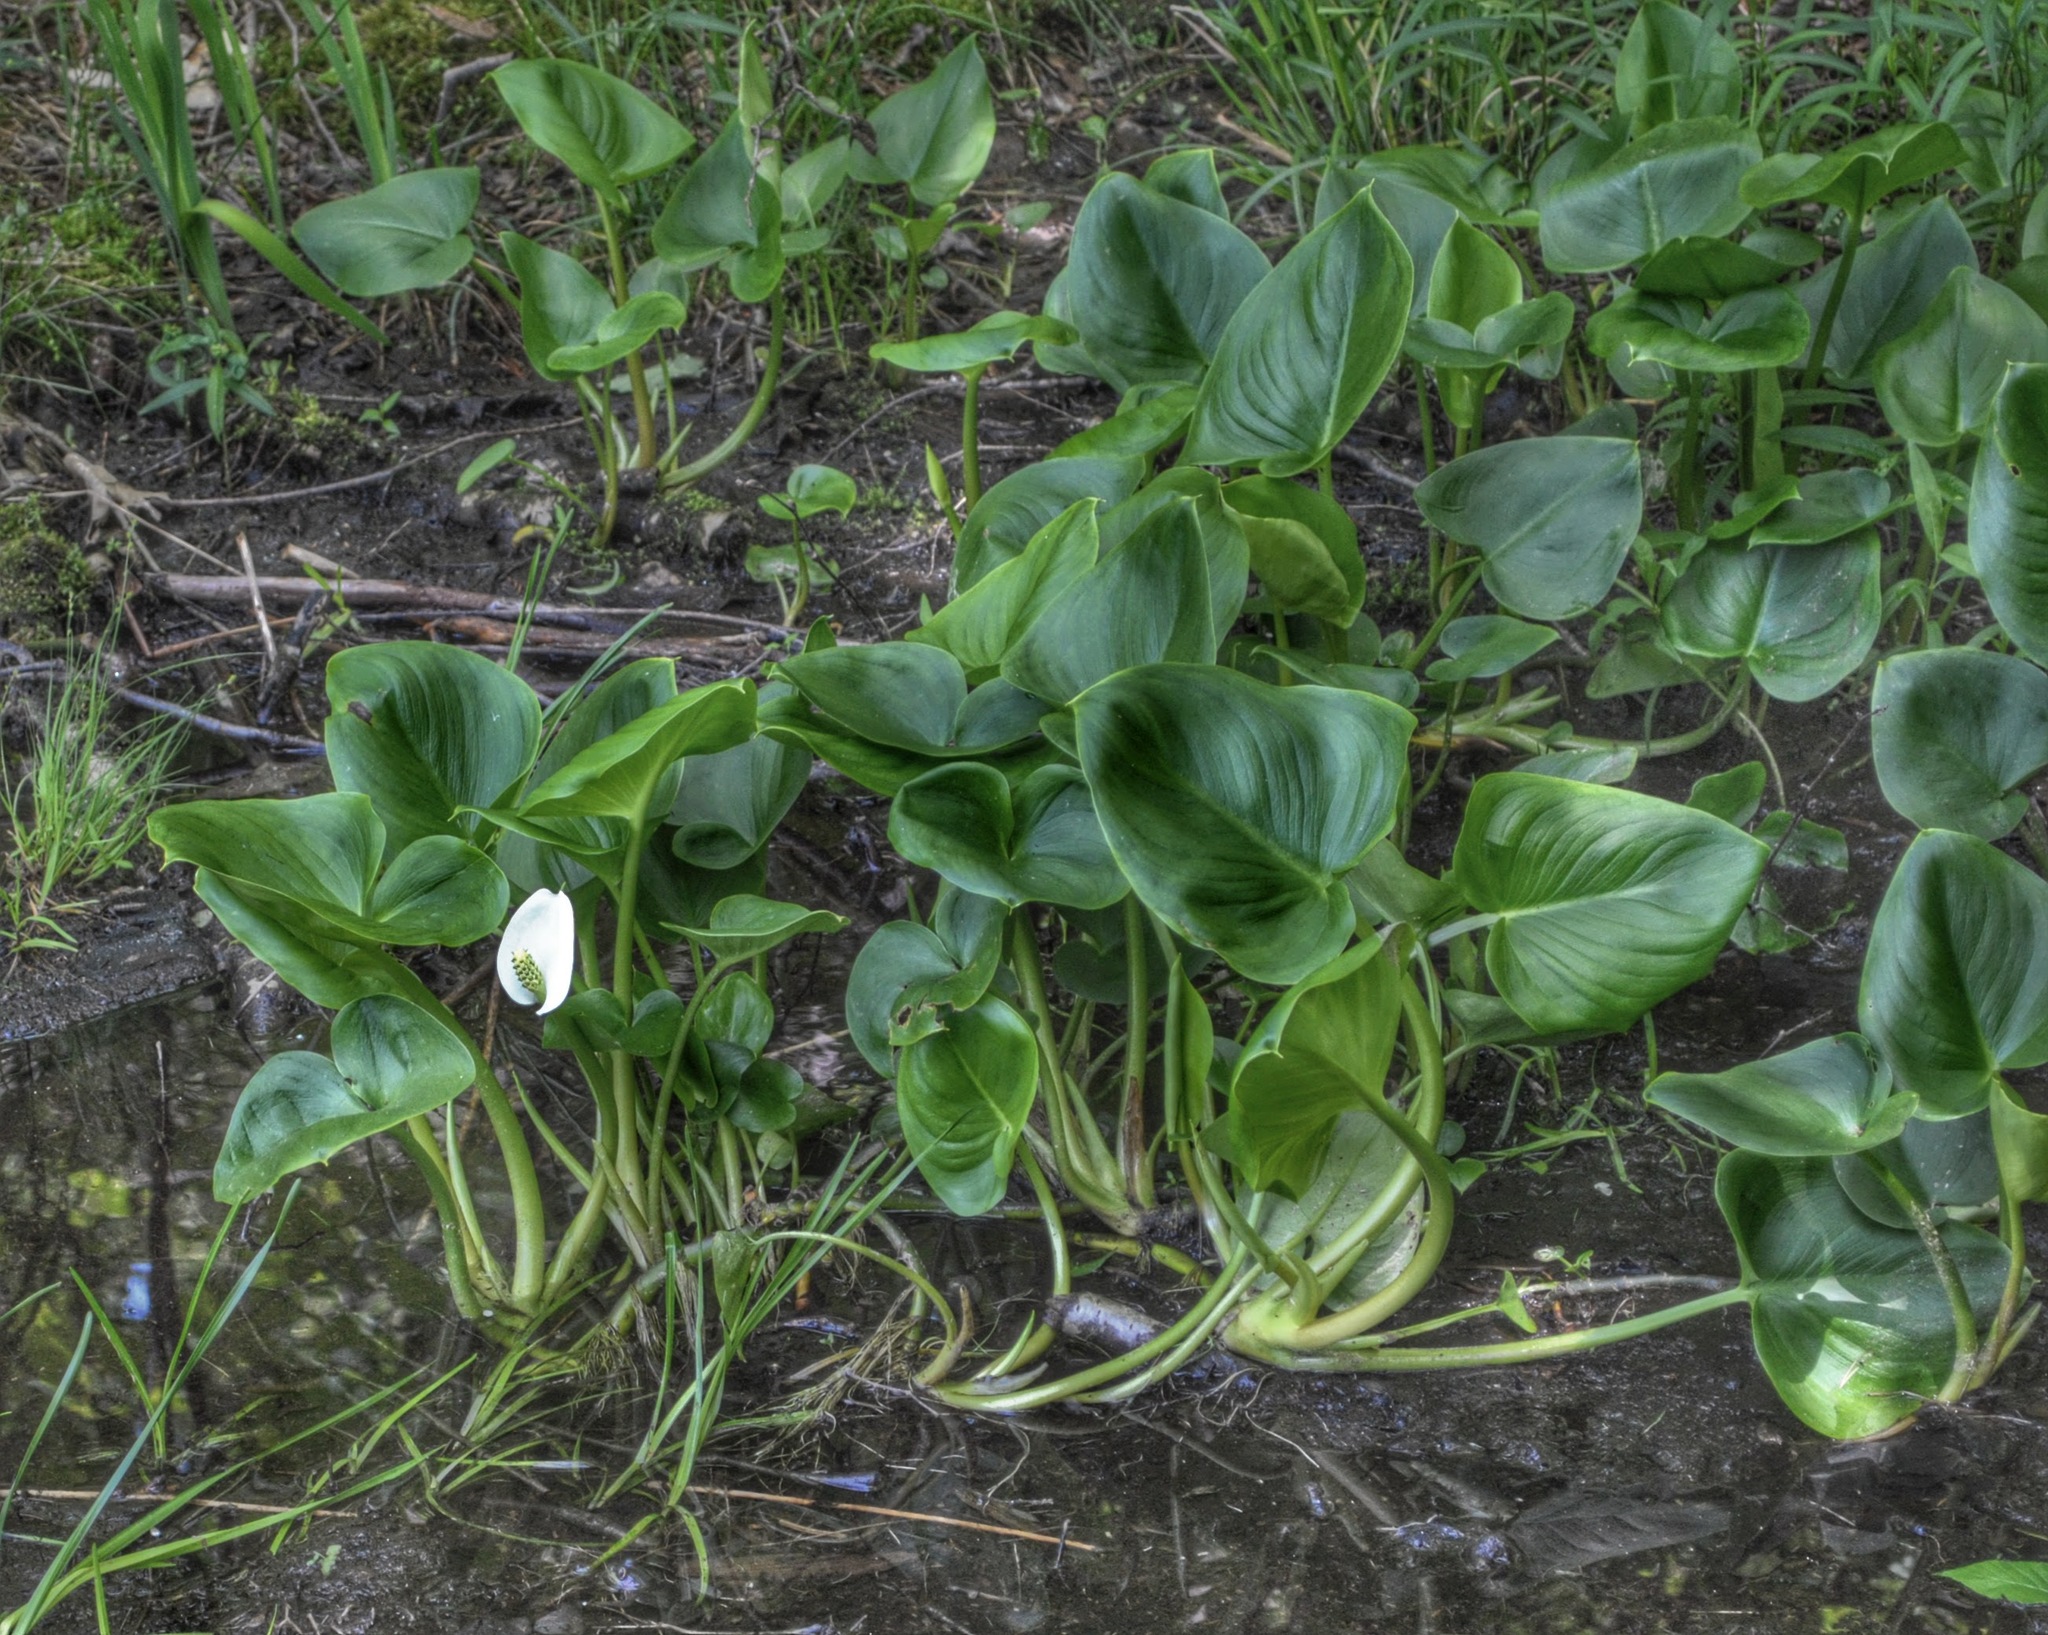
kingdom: Plantae
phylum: Tracheophyta
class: Liliopsida
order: Alismatales
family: Araceae
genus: Calla
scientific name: Calla palustris
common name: Bog arum
